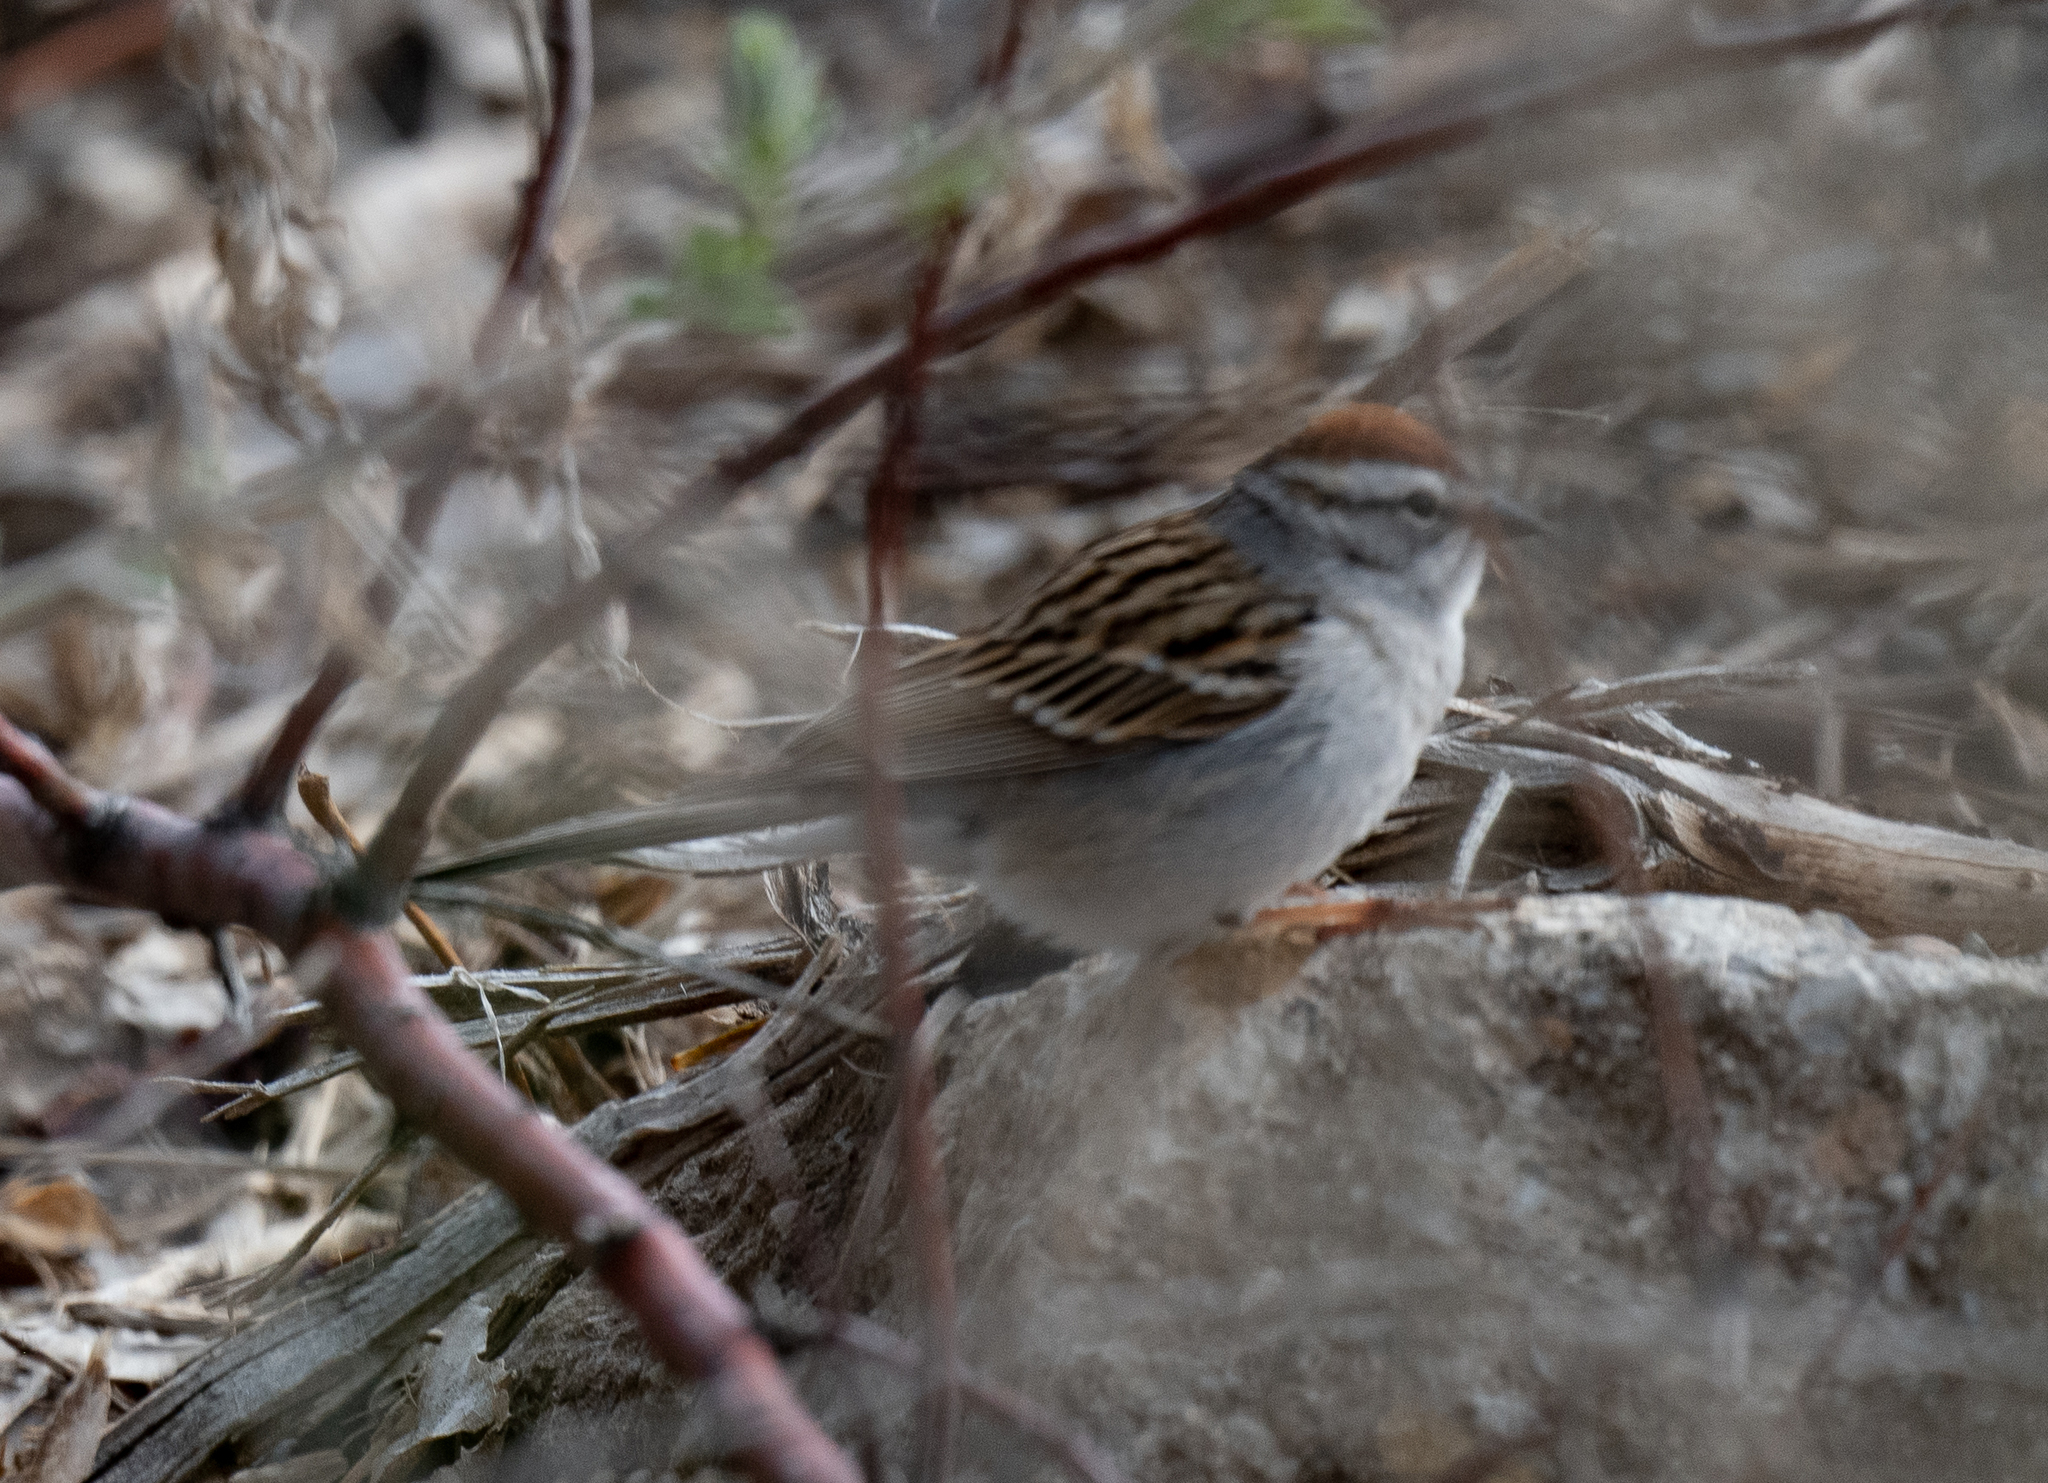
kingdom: Animalia
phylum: Chordata
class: Aves
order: Passeriformes
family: Passerellidae
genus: Spizella
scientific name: Spizella passerina
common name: Chipping sparrow
